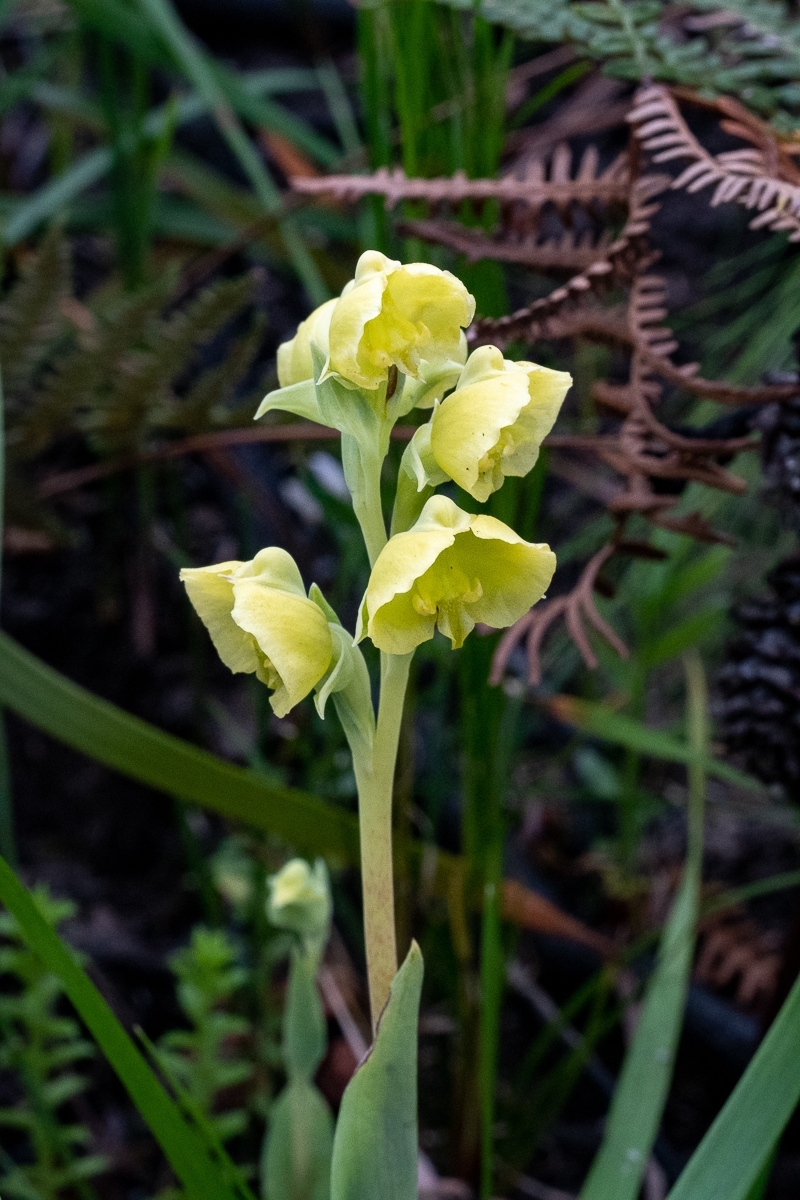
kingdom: Plantae
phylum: Tracheophyta
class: Liliopsida
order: Asparagales
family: Orchidaceae
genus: Pterygodium
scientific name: Pterygodium catholicum
